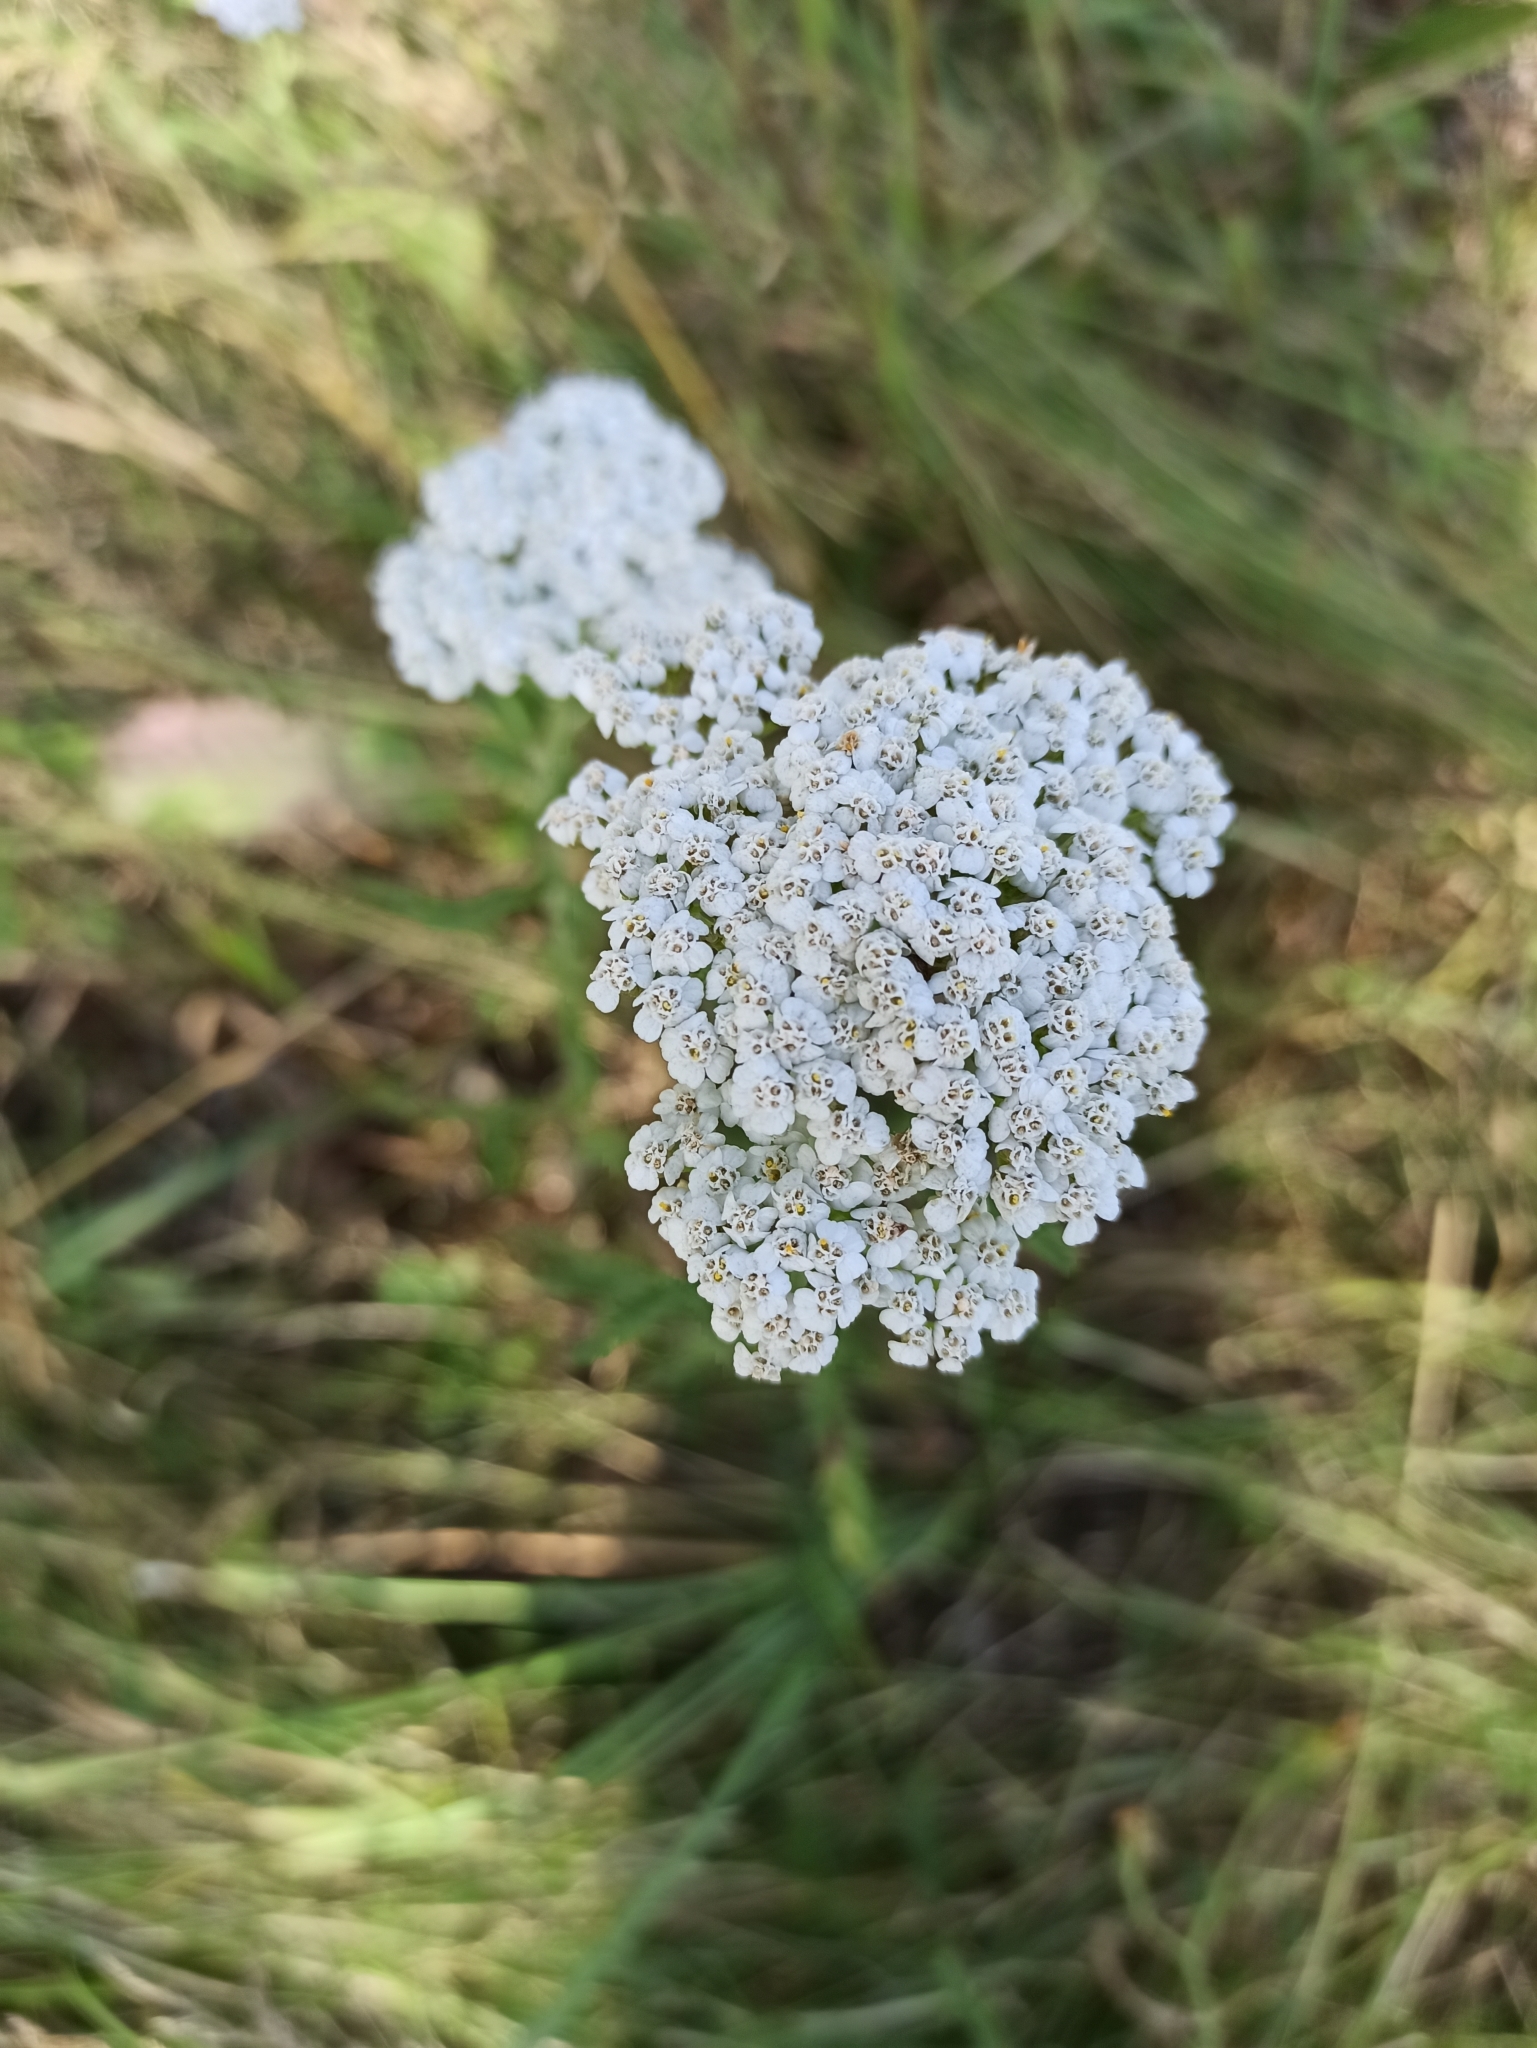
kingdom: Plantae
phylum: Tracheophyta
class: Magnoliopsida
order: Asterales
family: Asteraceae
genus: Achillea
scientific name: Achillea millefolium
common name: Yarrow
